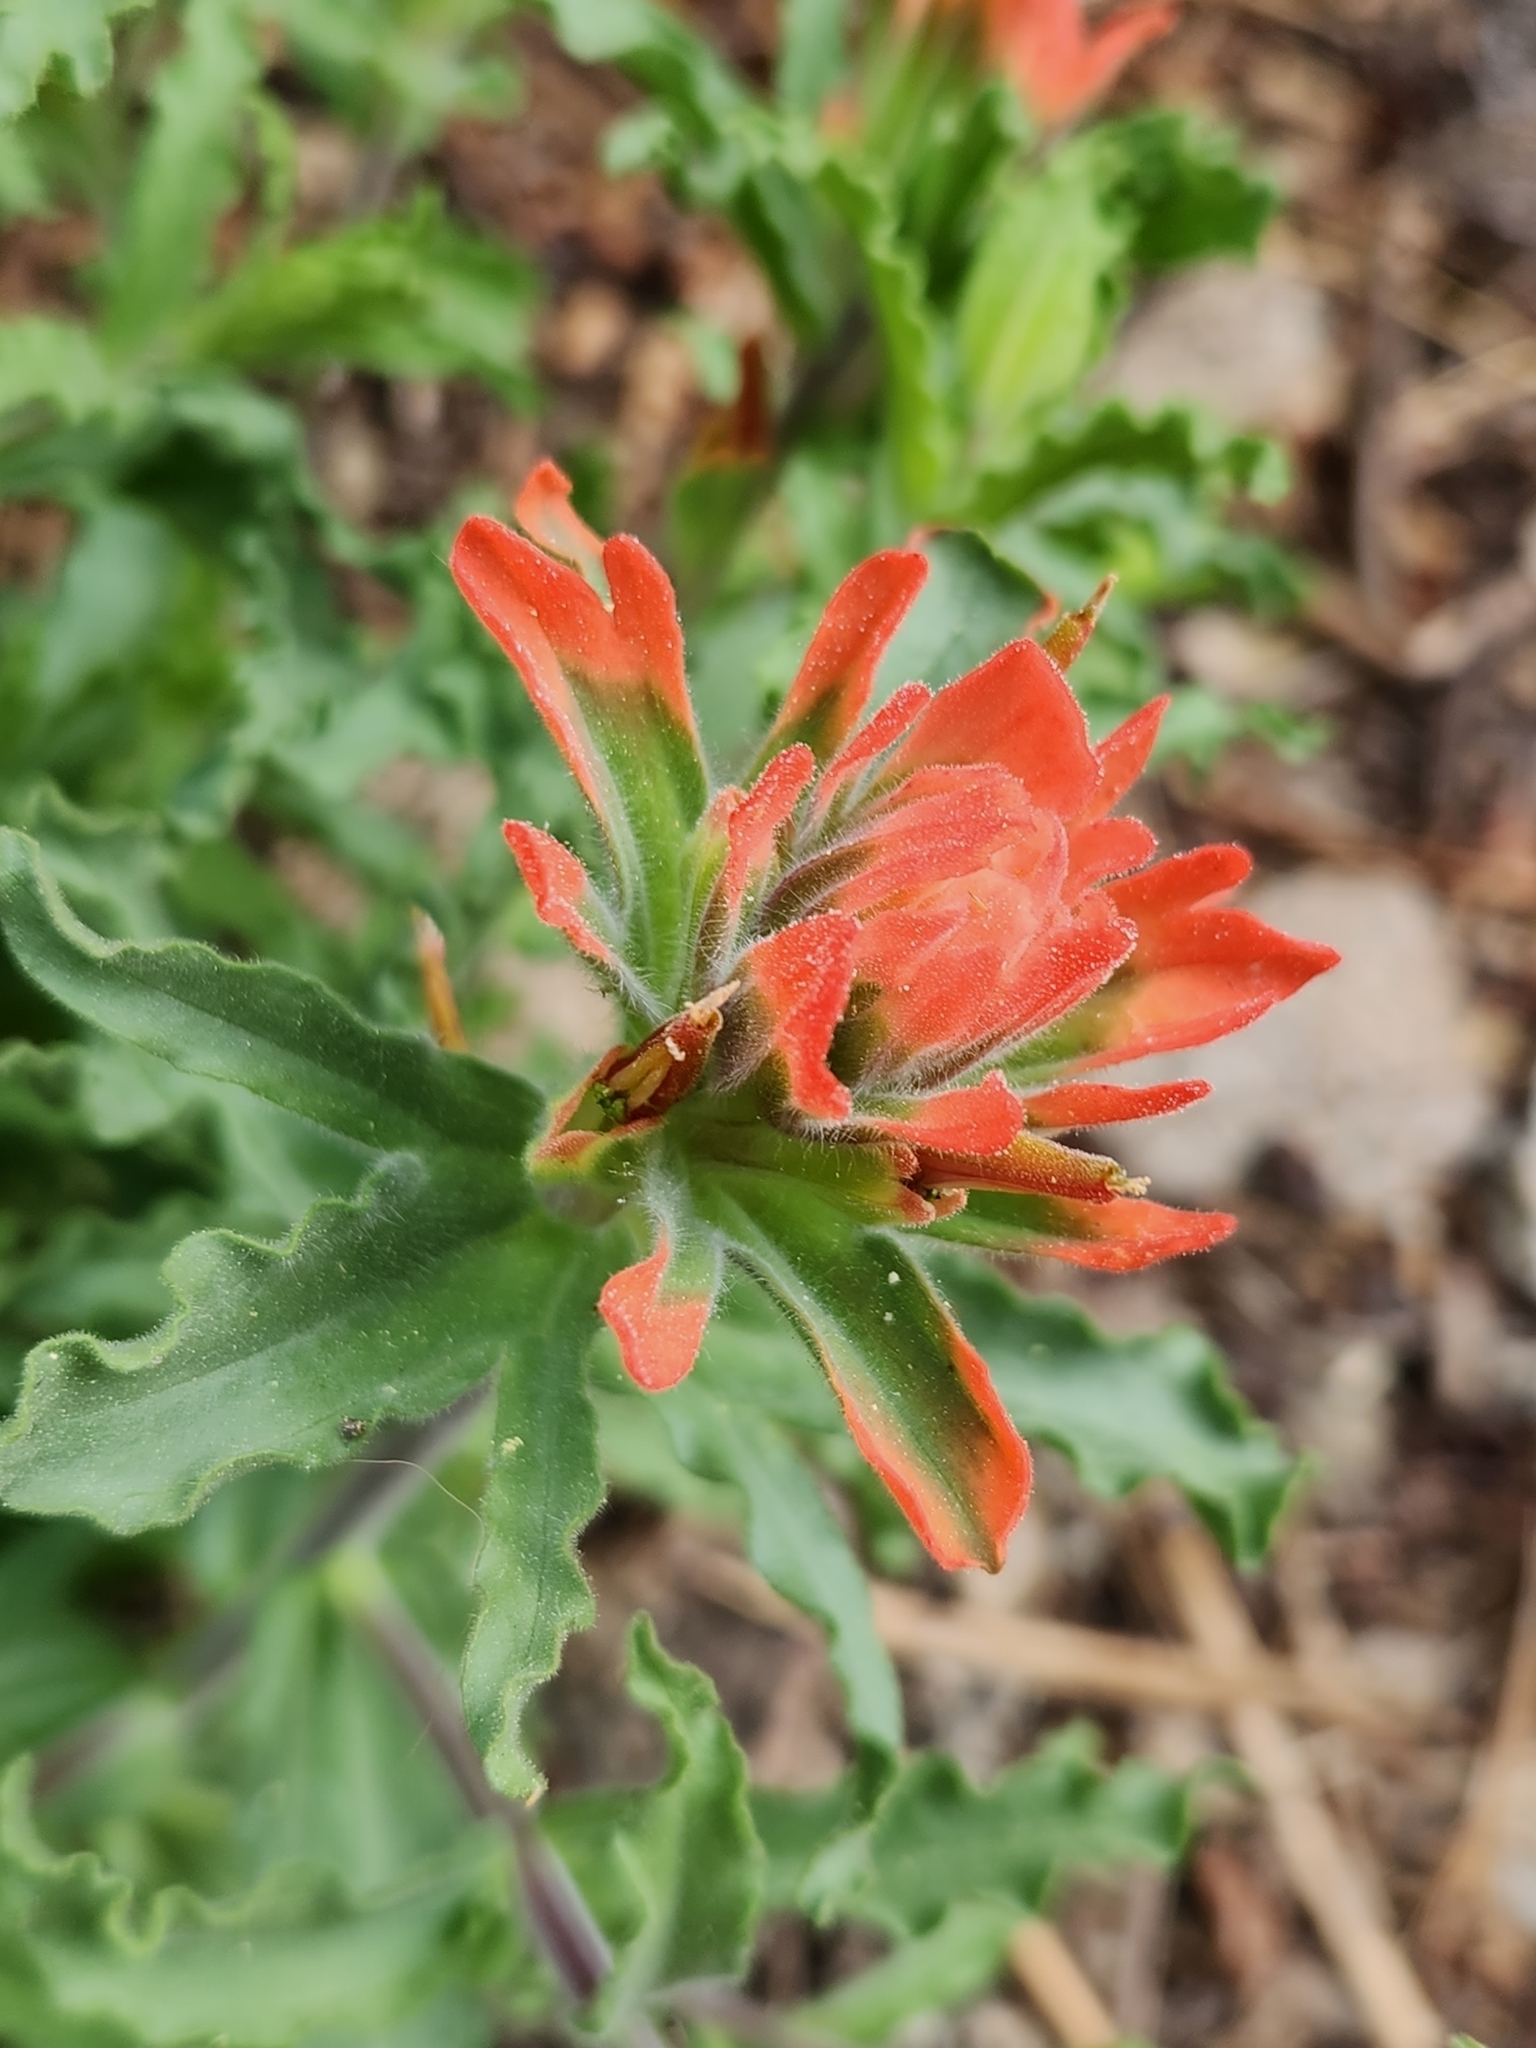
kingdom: Plantae
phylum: Tracheophyta
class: Magnoliopsida
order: Lamiales
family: Orobanchaceae
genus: Castilleja
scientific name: Castilleja martini
